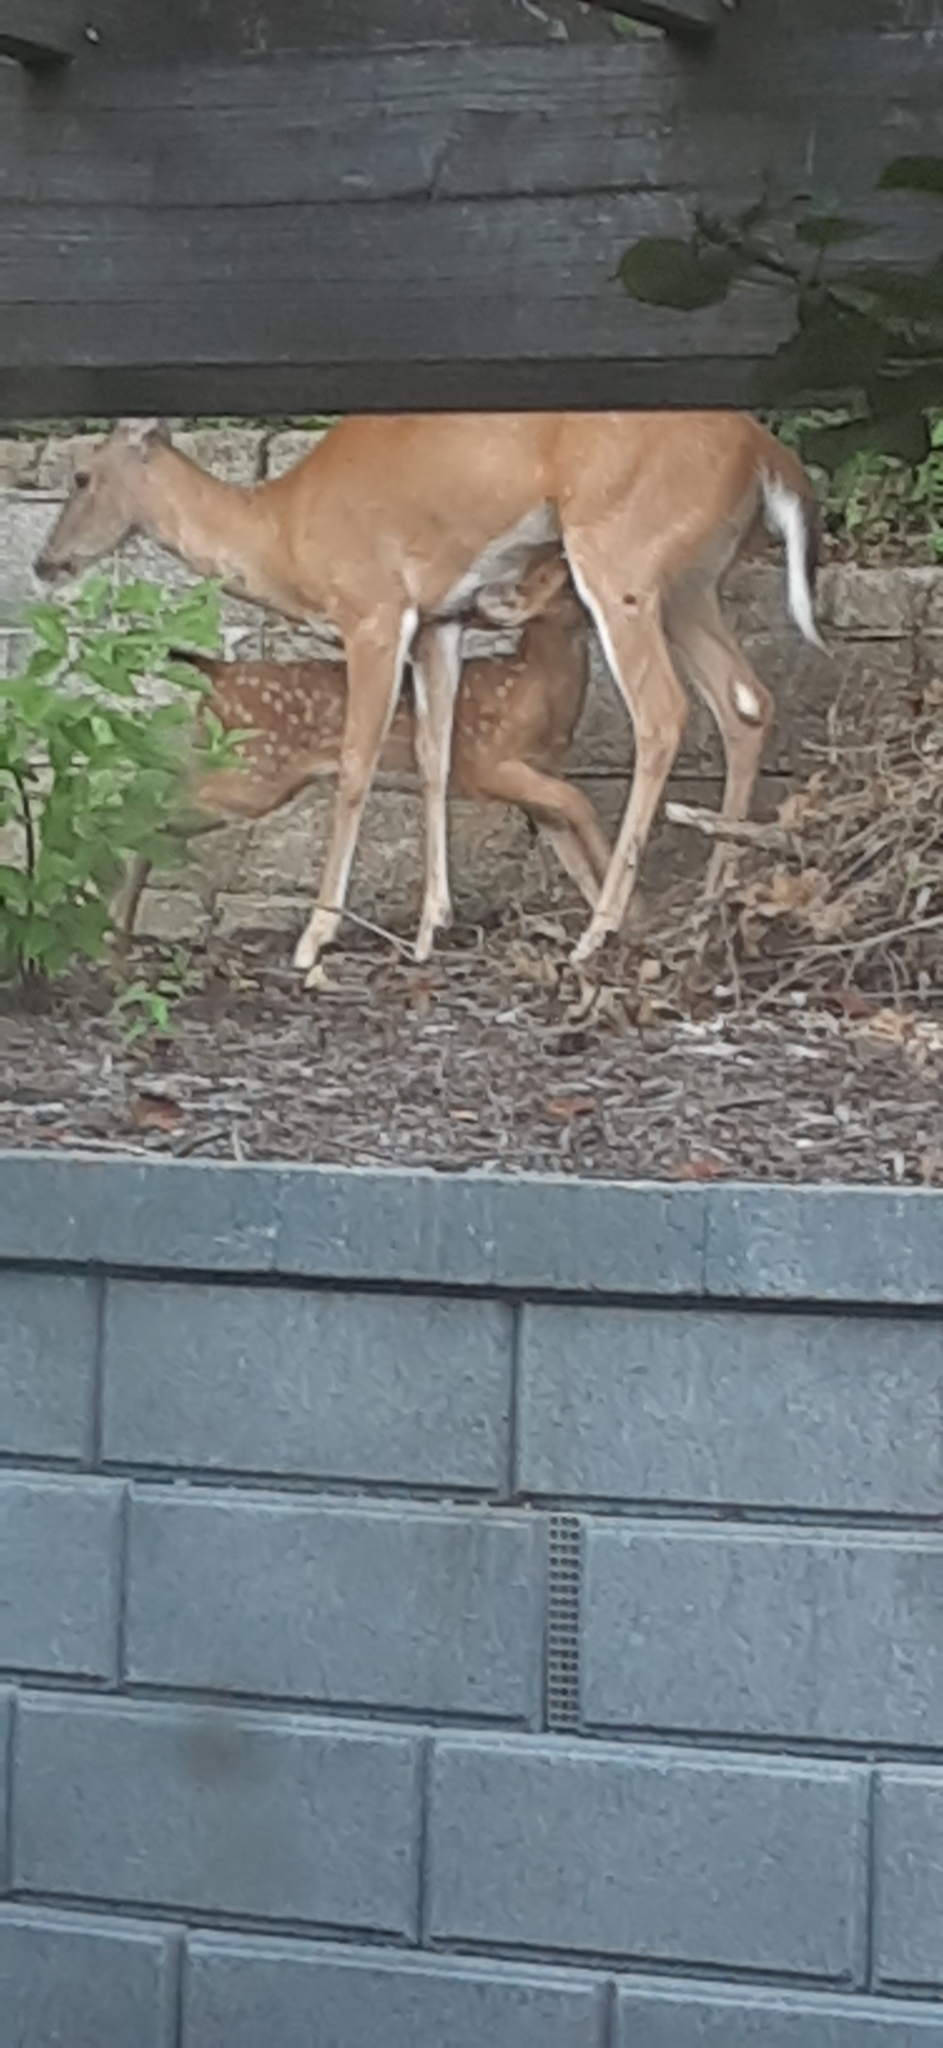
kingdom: Animalia
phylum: Chordata
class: Mammalia
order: Artiodactyla
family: Cervidae
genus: Odocoileus
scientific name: Odocoileus virginianus
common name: White-tailed deer
